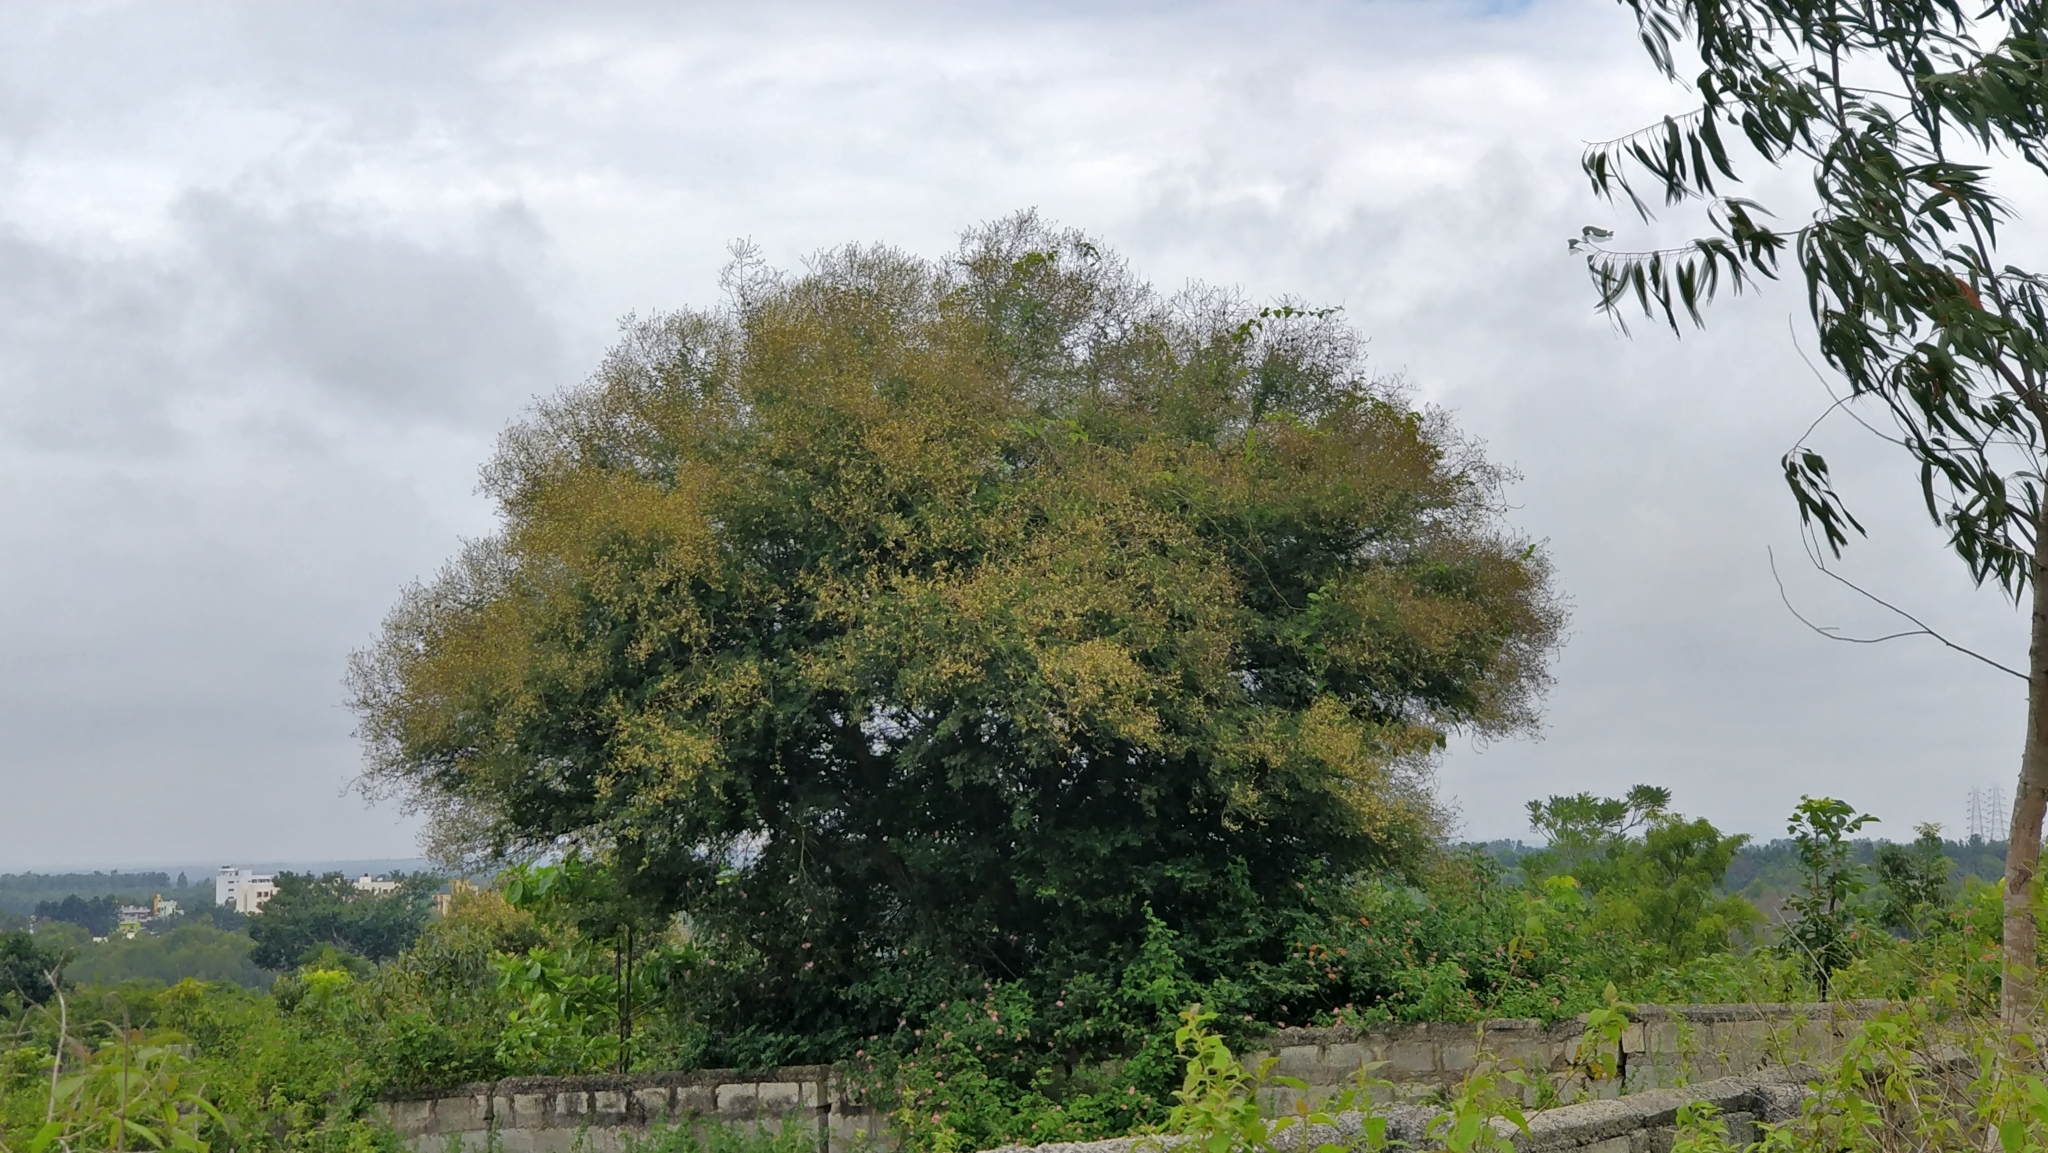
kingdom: Plantae
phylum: Tracheophyta
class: Magnoliopsida
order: Fabales
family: Fabaceae
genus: Vachellia
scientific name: Vachellia leucophloea
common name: Distiller's acacia
